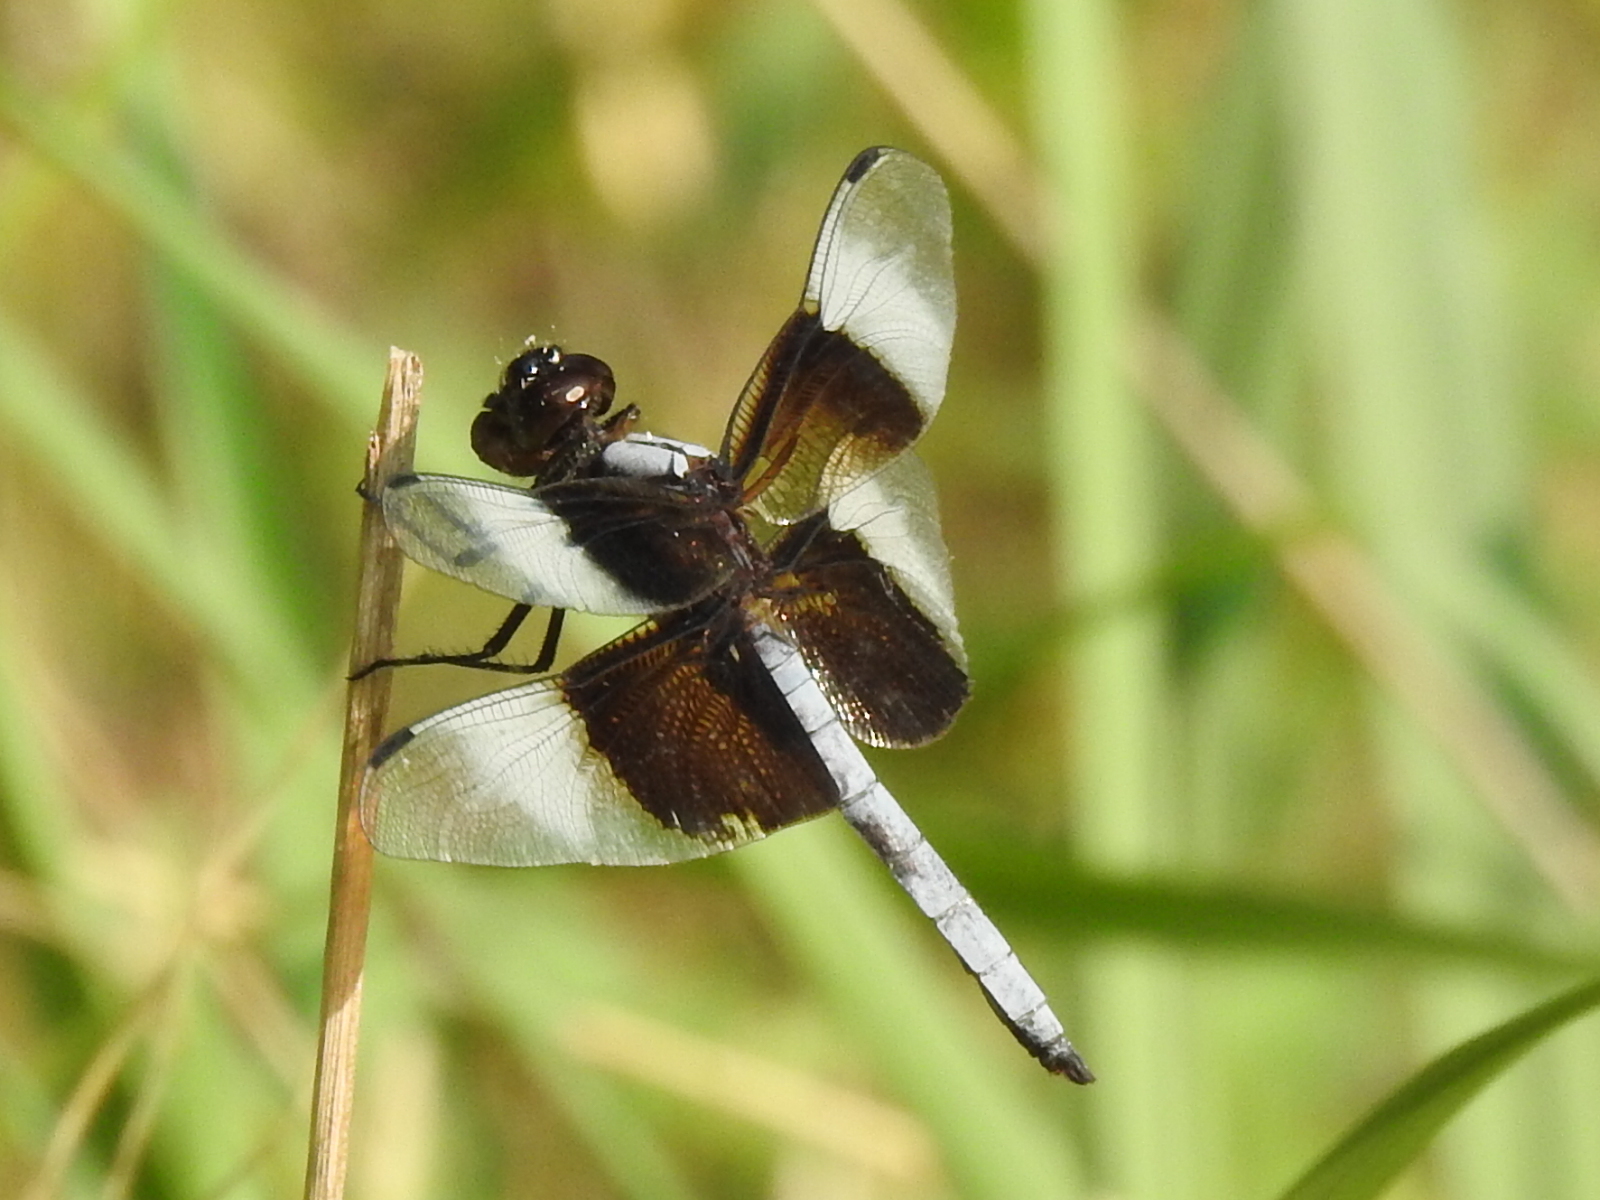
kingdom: Animalia
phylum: Arthropoda
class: Insecta
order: Odonata
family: Libellulidae
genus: Libellula
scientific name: Libellula luctuosa
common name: Widow skimmer
